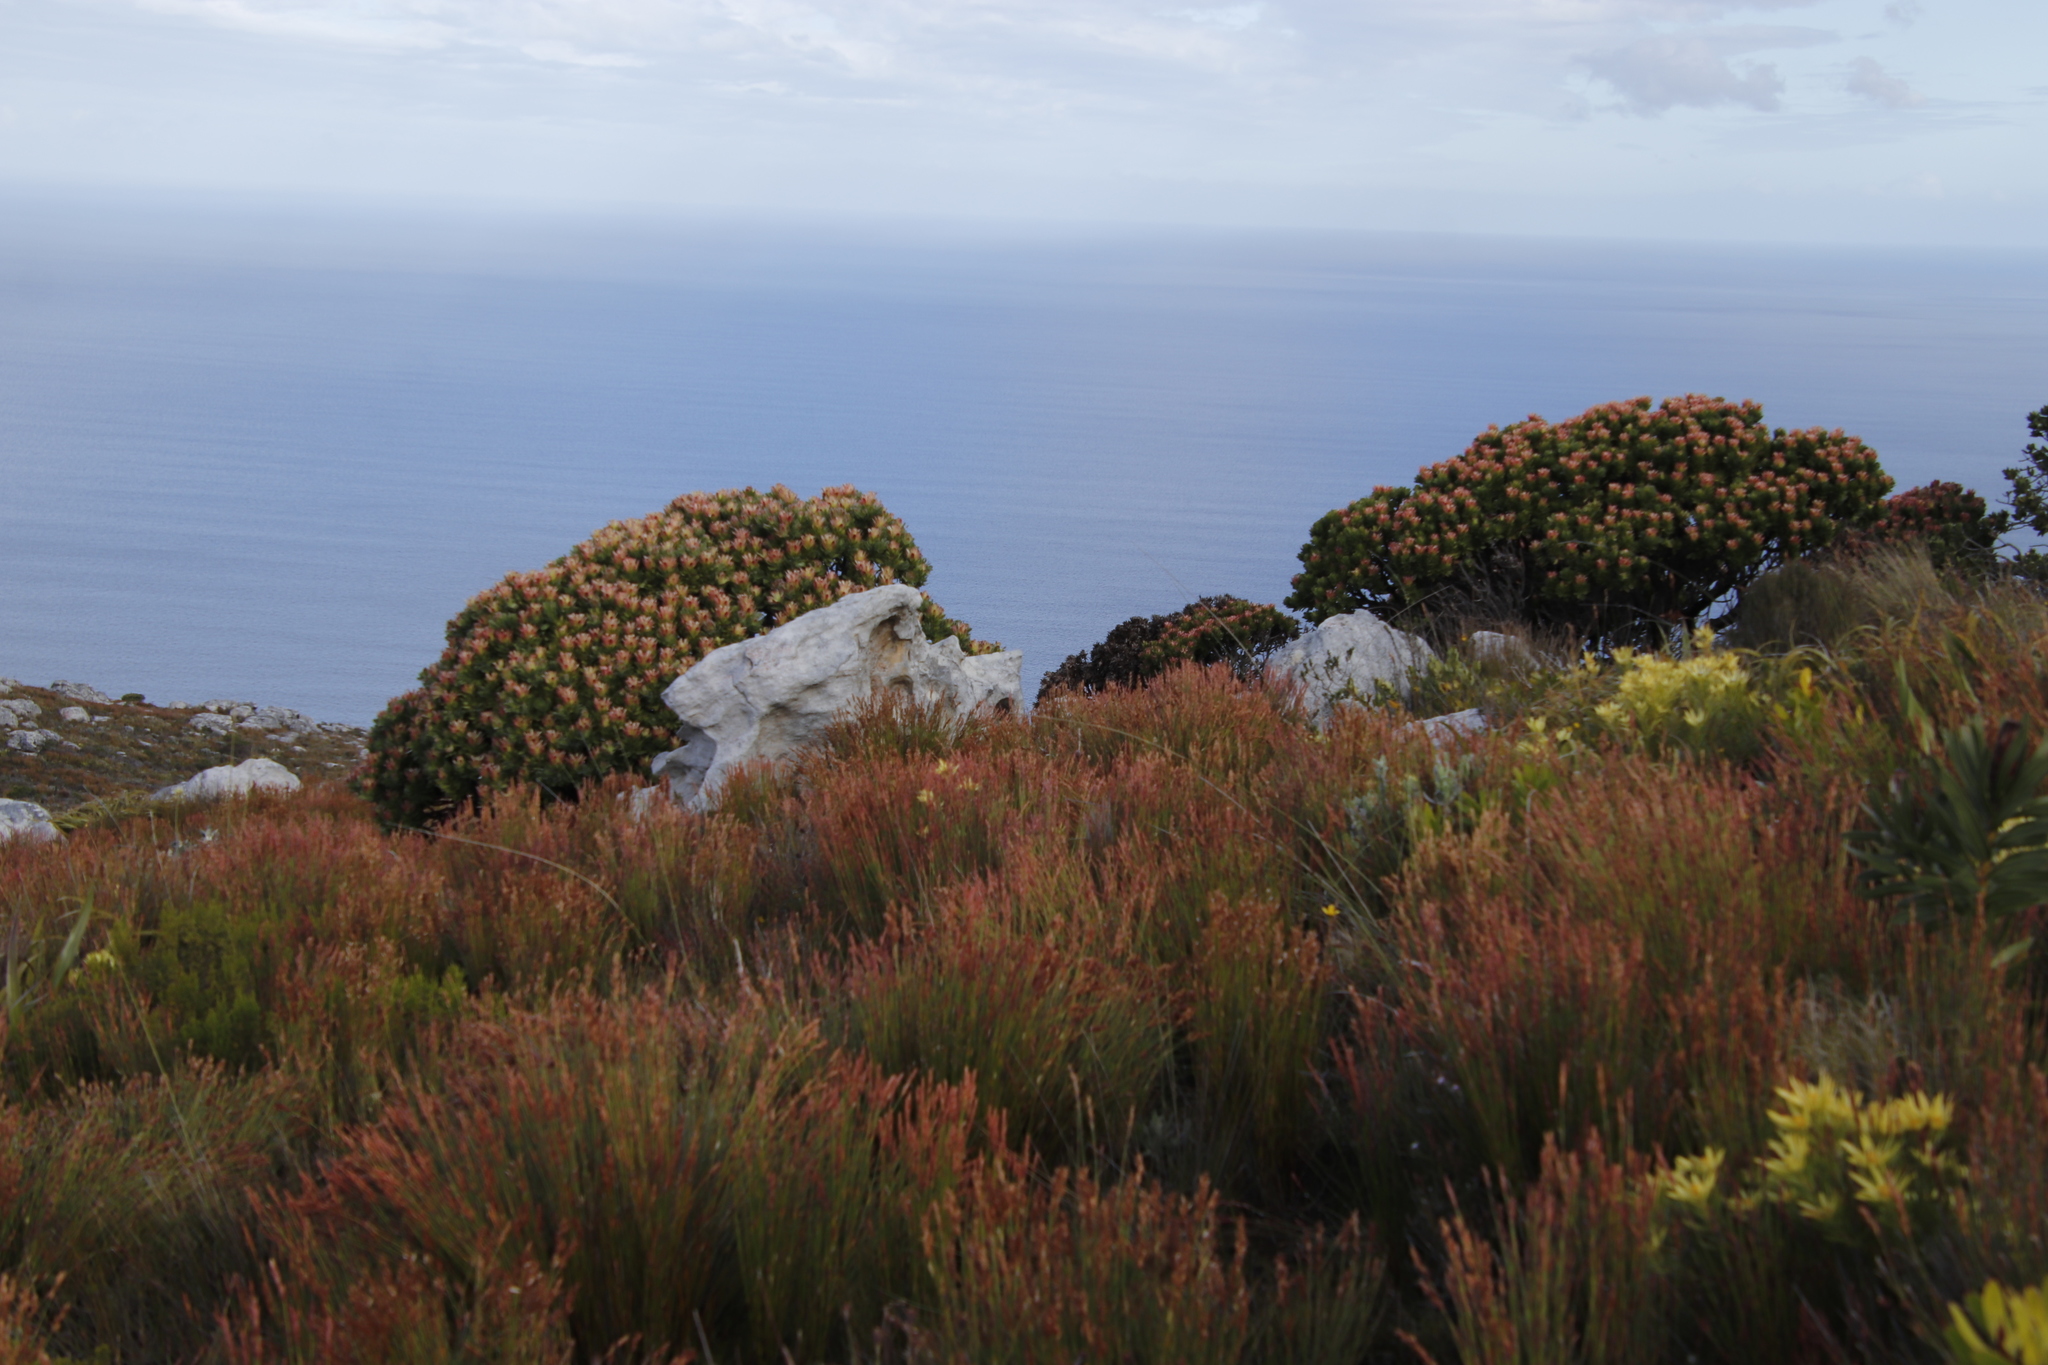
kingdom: Plantae
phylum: Tracheophyta
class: Magnoliopsida
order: Proteales
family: Proteaceae
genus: Mimetes
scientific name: Mimetes fimbriifolius
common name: Fringed bottlebrush
